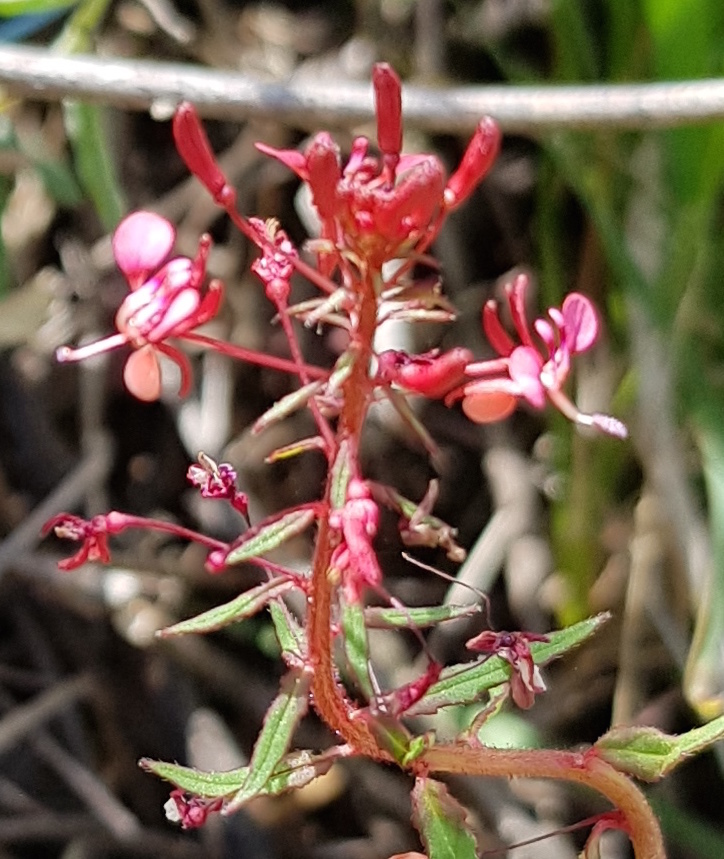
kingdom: Plantae
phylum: Tracheophyta
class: Magnoliopsida
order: Myrtales
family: Onagraceae
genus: Lopezia
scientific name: Lopezia racemosa
